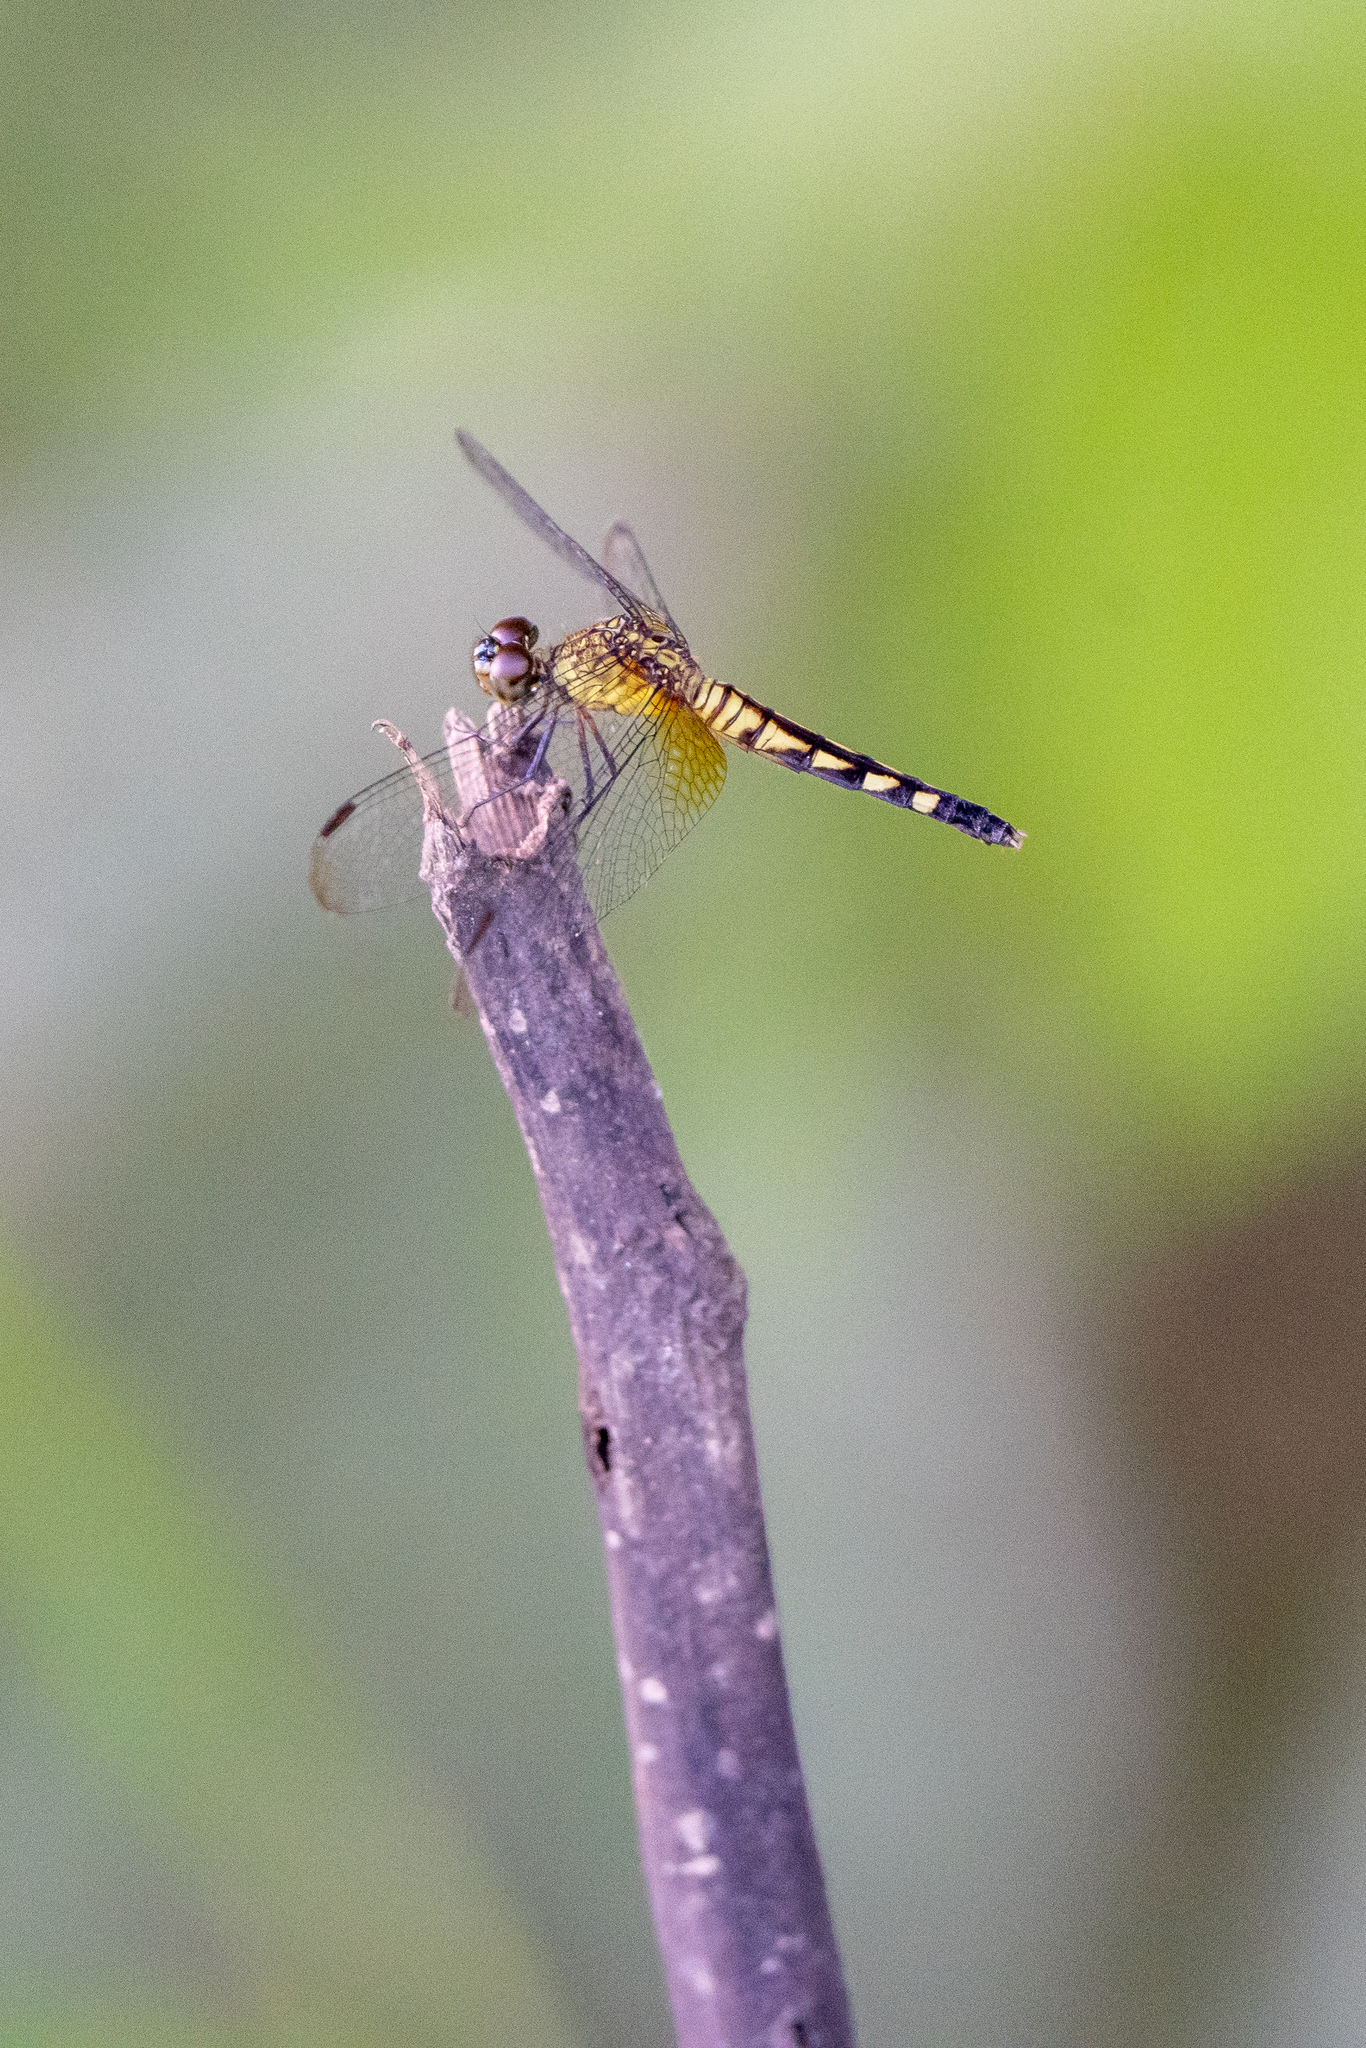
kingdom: Animalia
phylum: Arthropoda
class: Insecta
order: Odonata
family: Libellulidae
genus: Erythrodiplax
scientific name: Erythrodiplax fervida
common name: Red-mantled dragonlet
